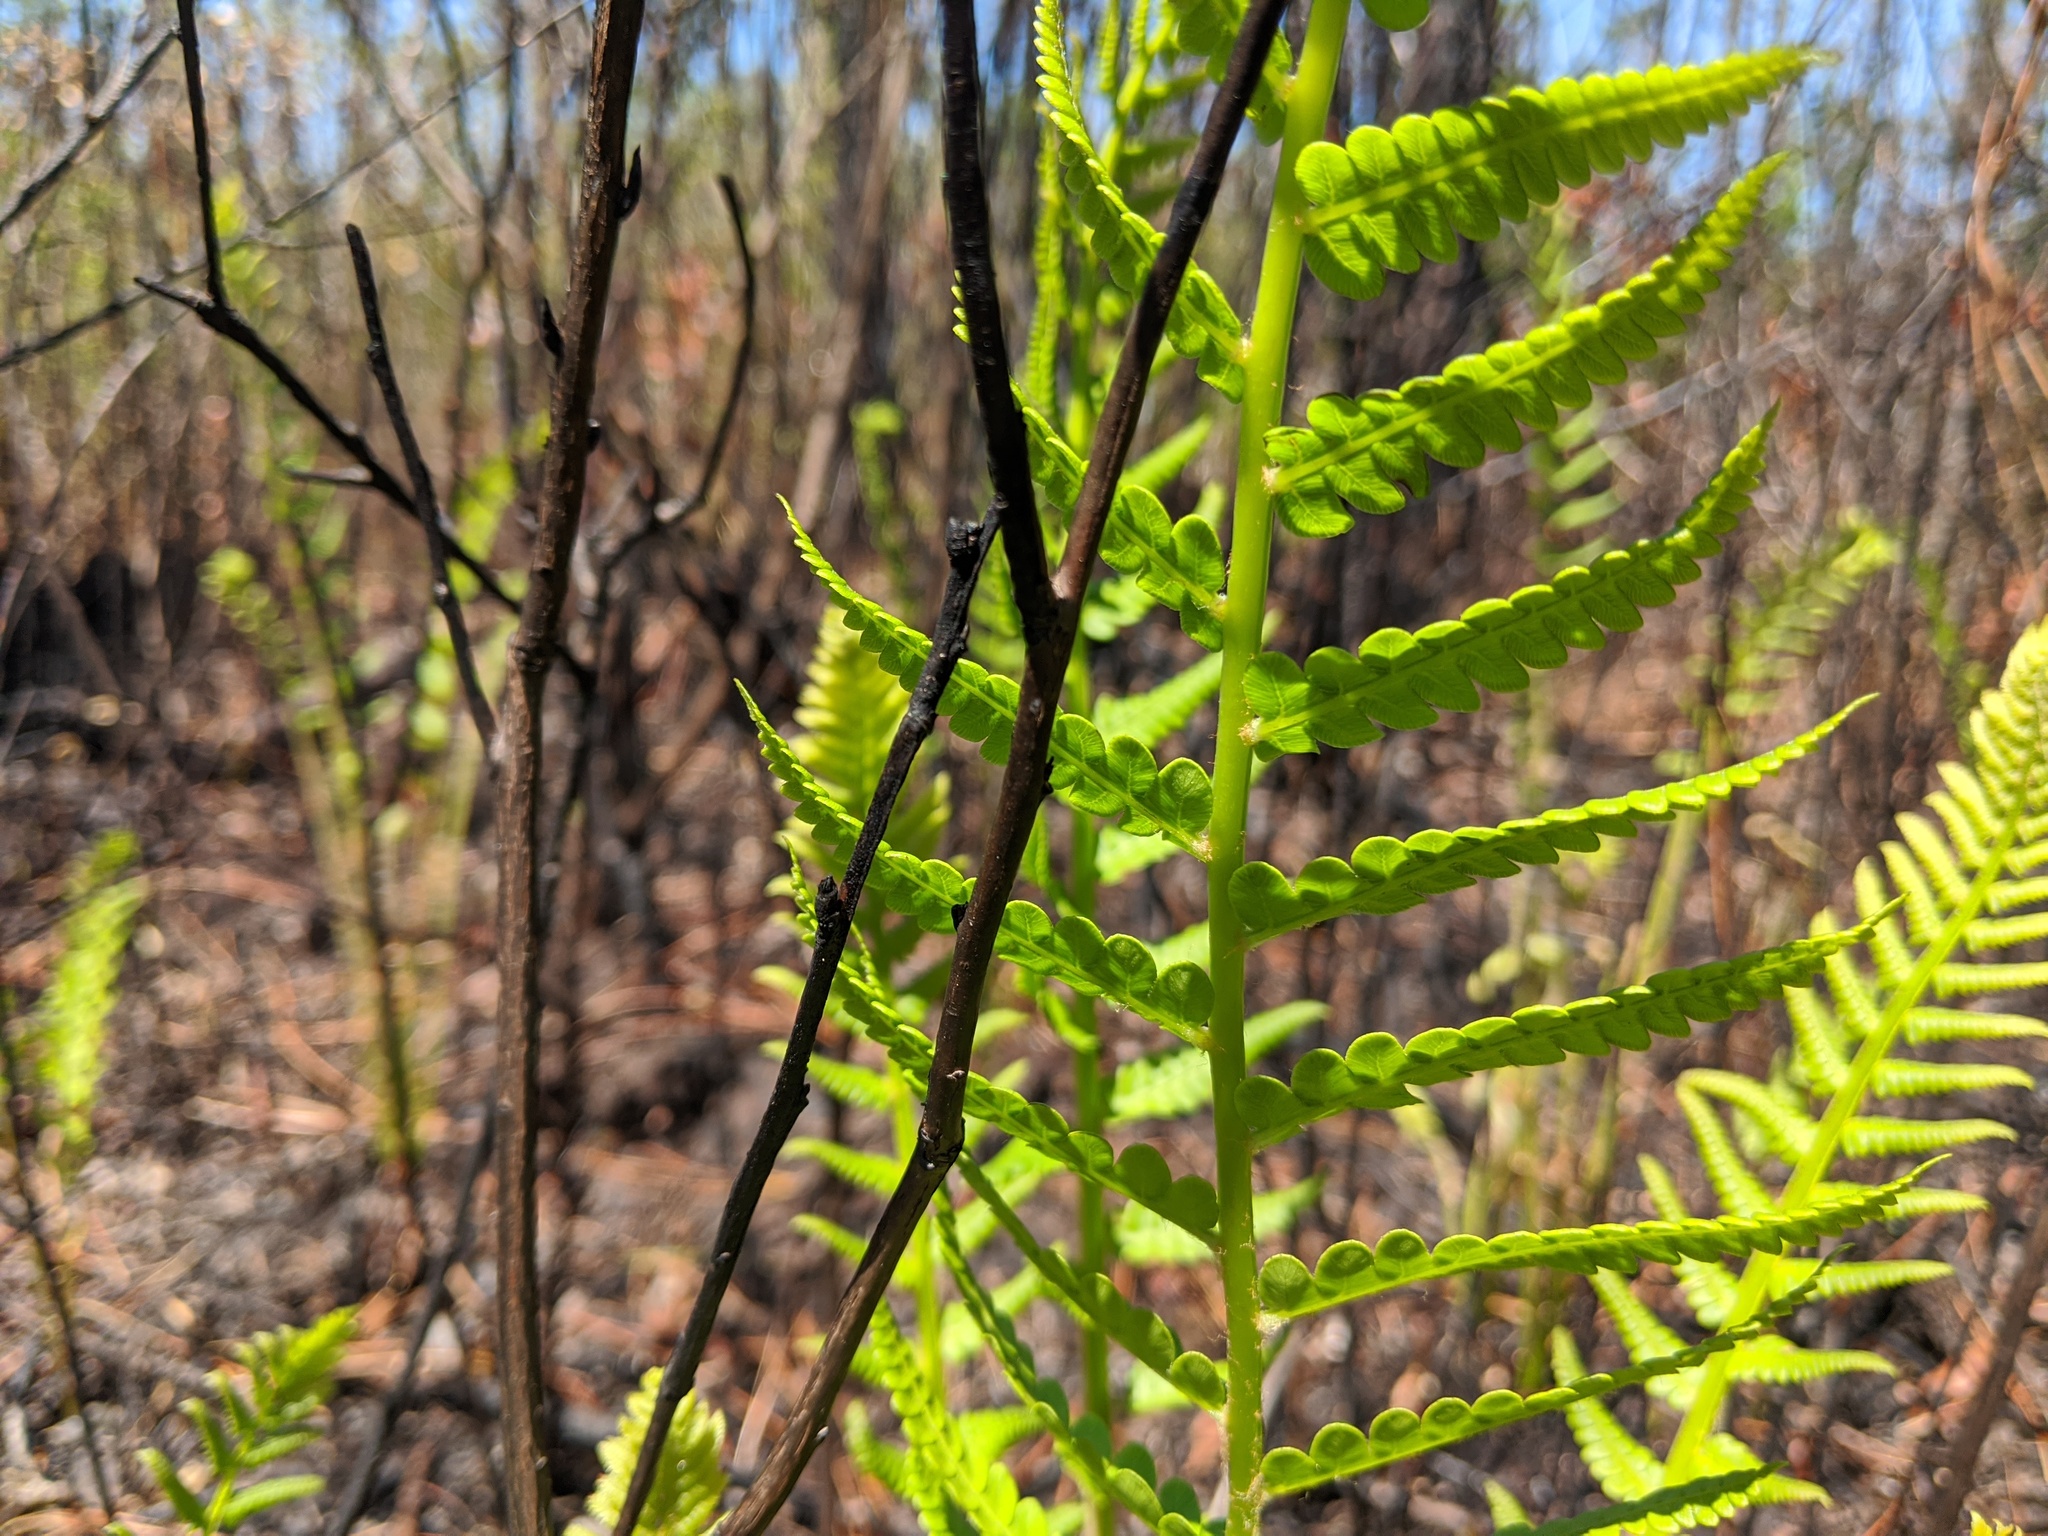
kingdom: Plantae
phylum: Tracheophyta
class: Polypodiopsida
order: Osmundales
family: Osmundaceae
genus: Osmundastrum
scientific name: Osmundastrum cinnamomeum
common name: Cinnamon fern
